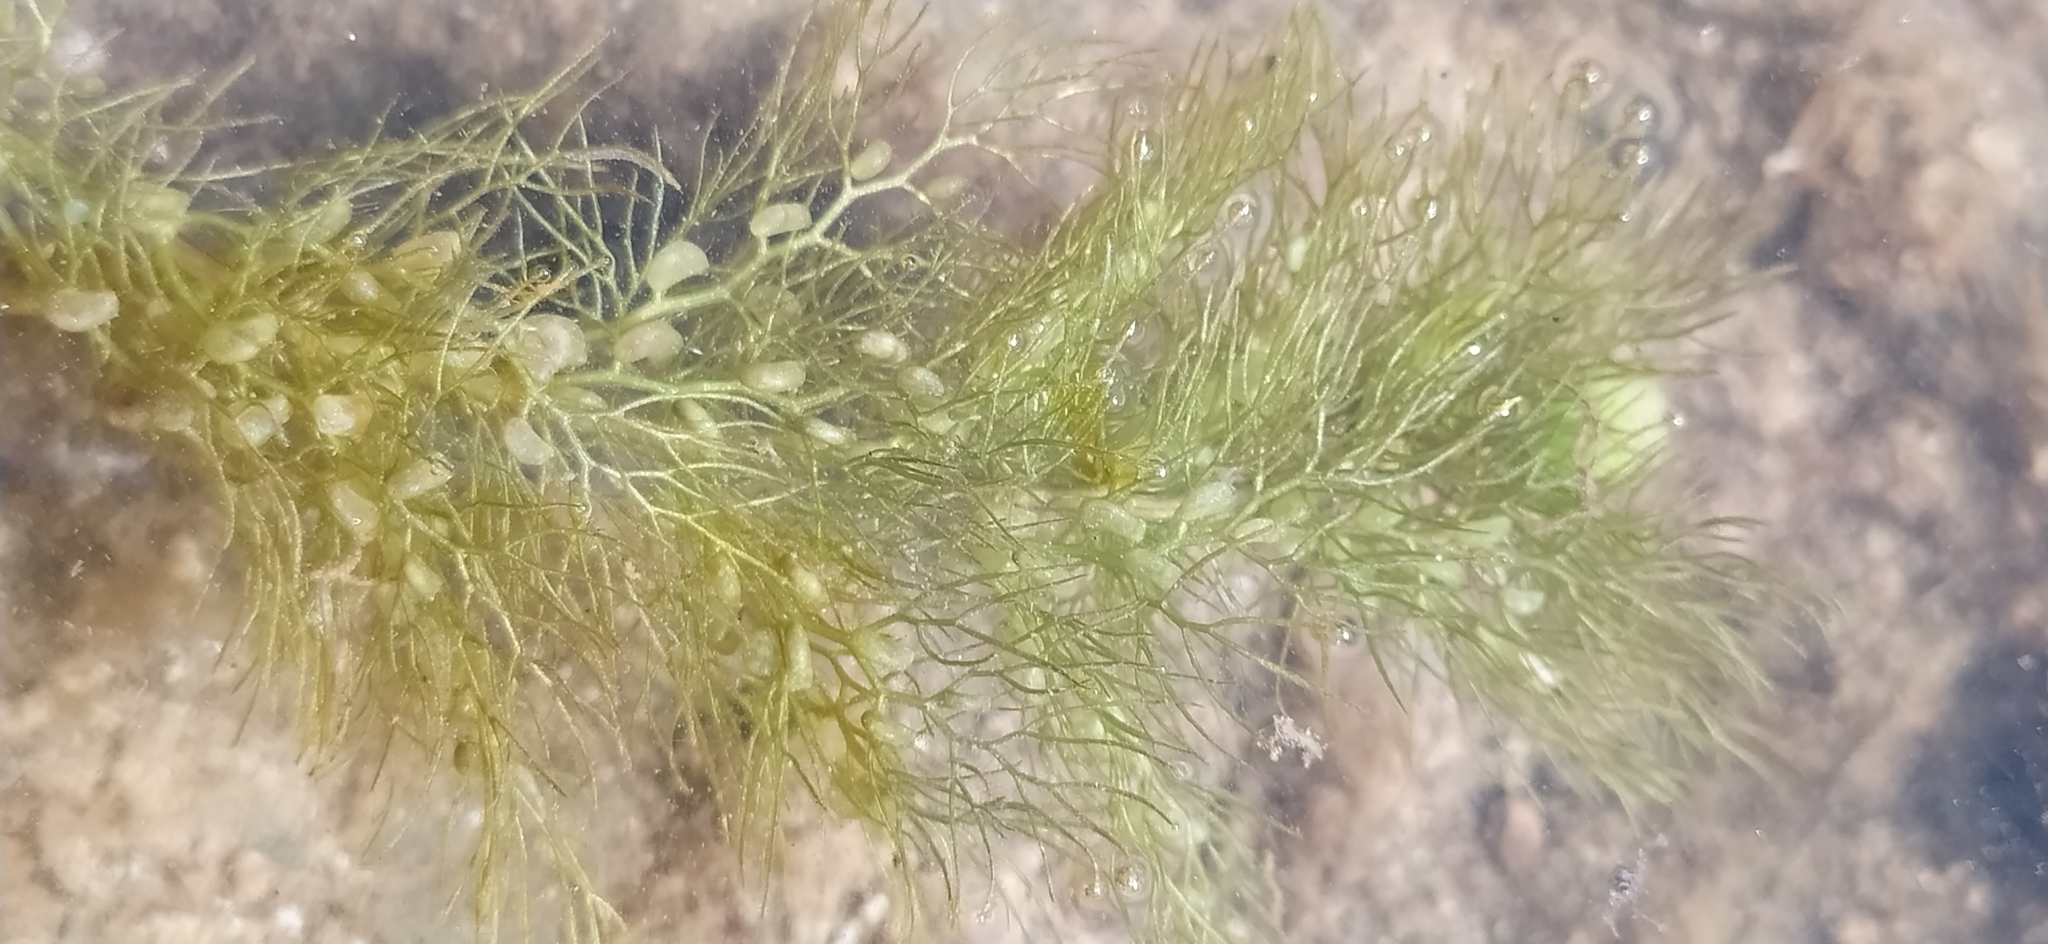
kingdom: Plantae
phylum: Tracheophyta
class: Magnoliopsida
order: Lamiales
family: Lentibulariaceae
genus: Utricularia
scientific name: Utricularia vulgaris
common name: Greater bladderwort
